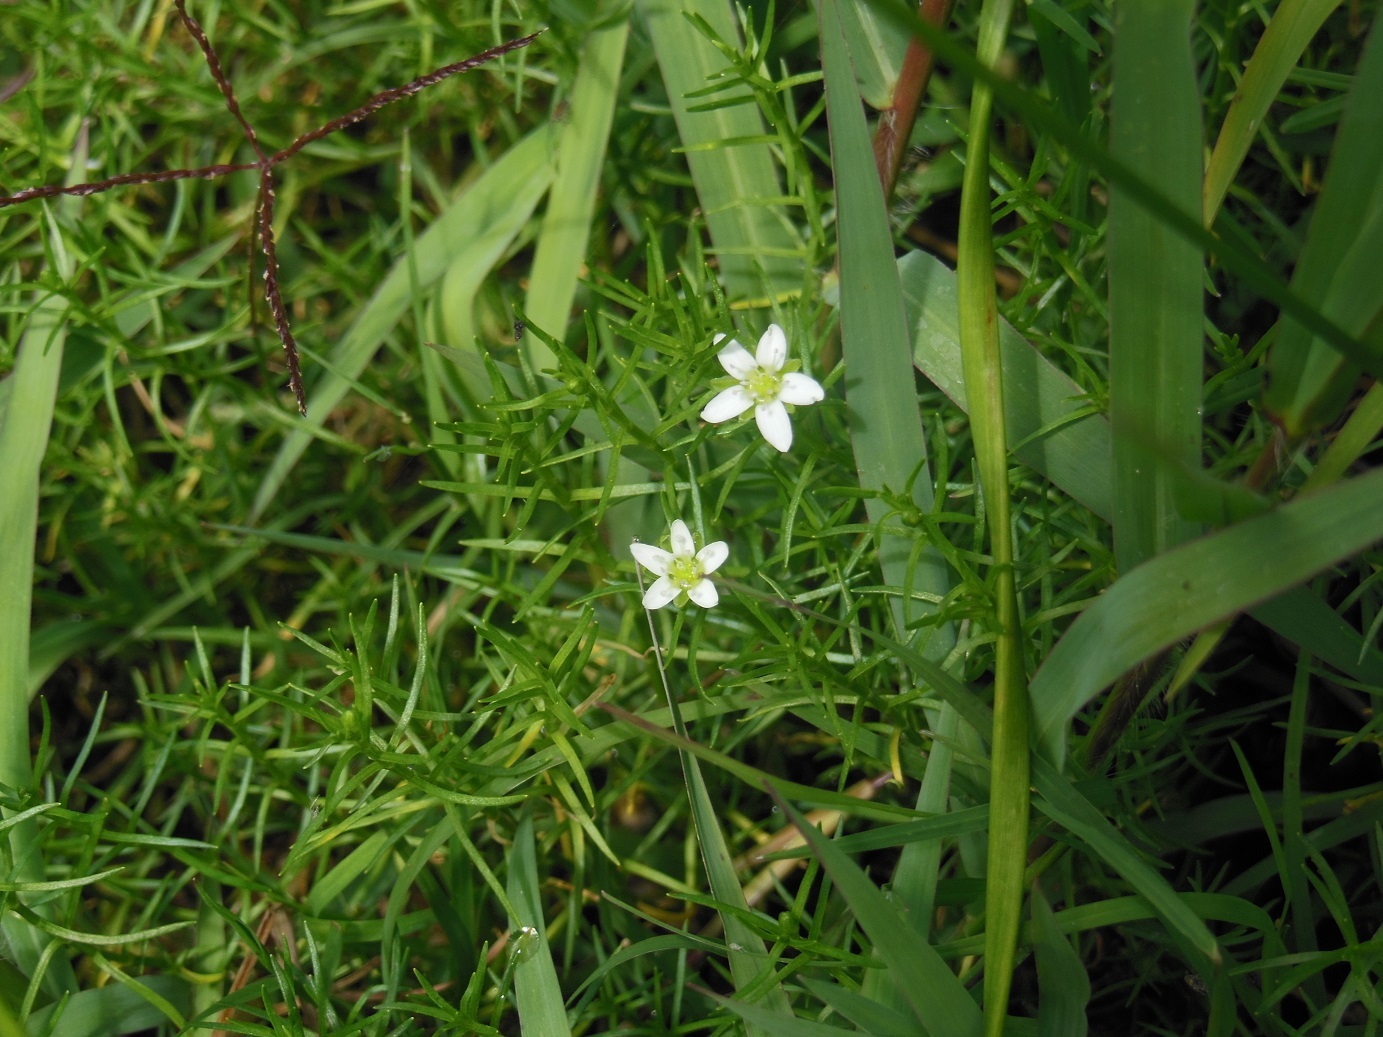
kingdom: Plantae
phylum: Tracheophyta
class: Magnoliopsida
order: Caryophyllales
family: Caryophyllaceae
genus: Arenaria
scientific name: Arenaria bourgaei
